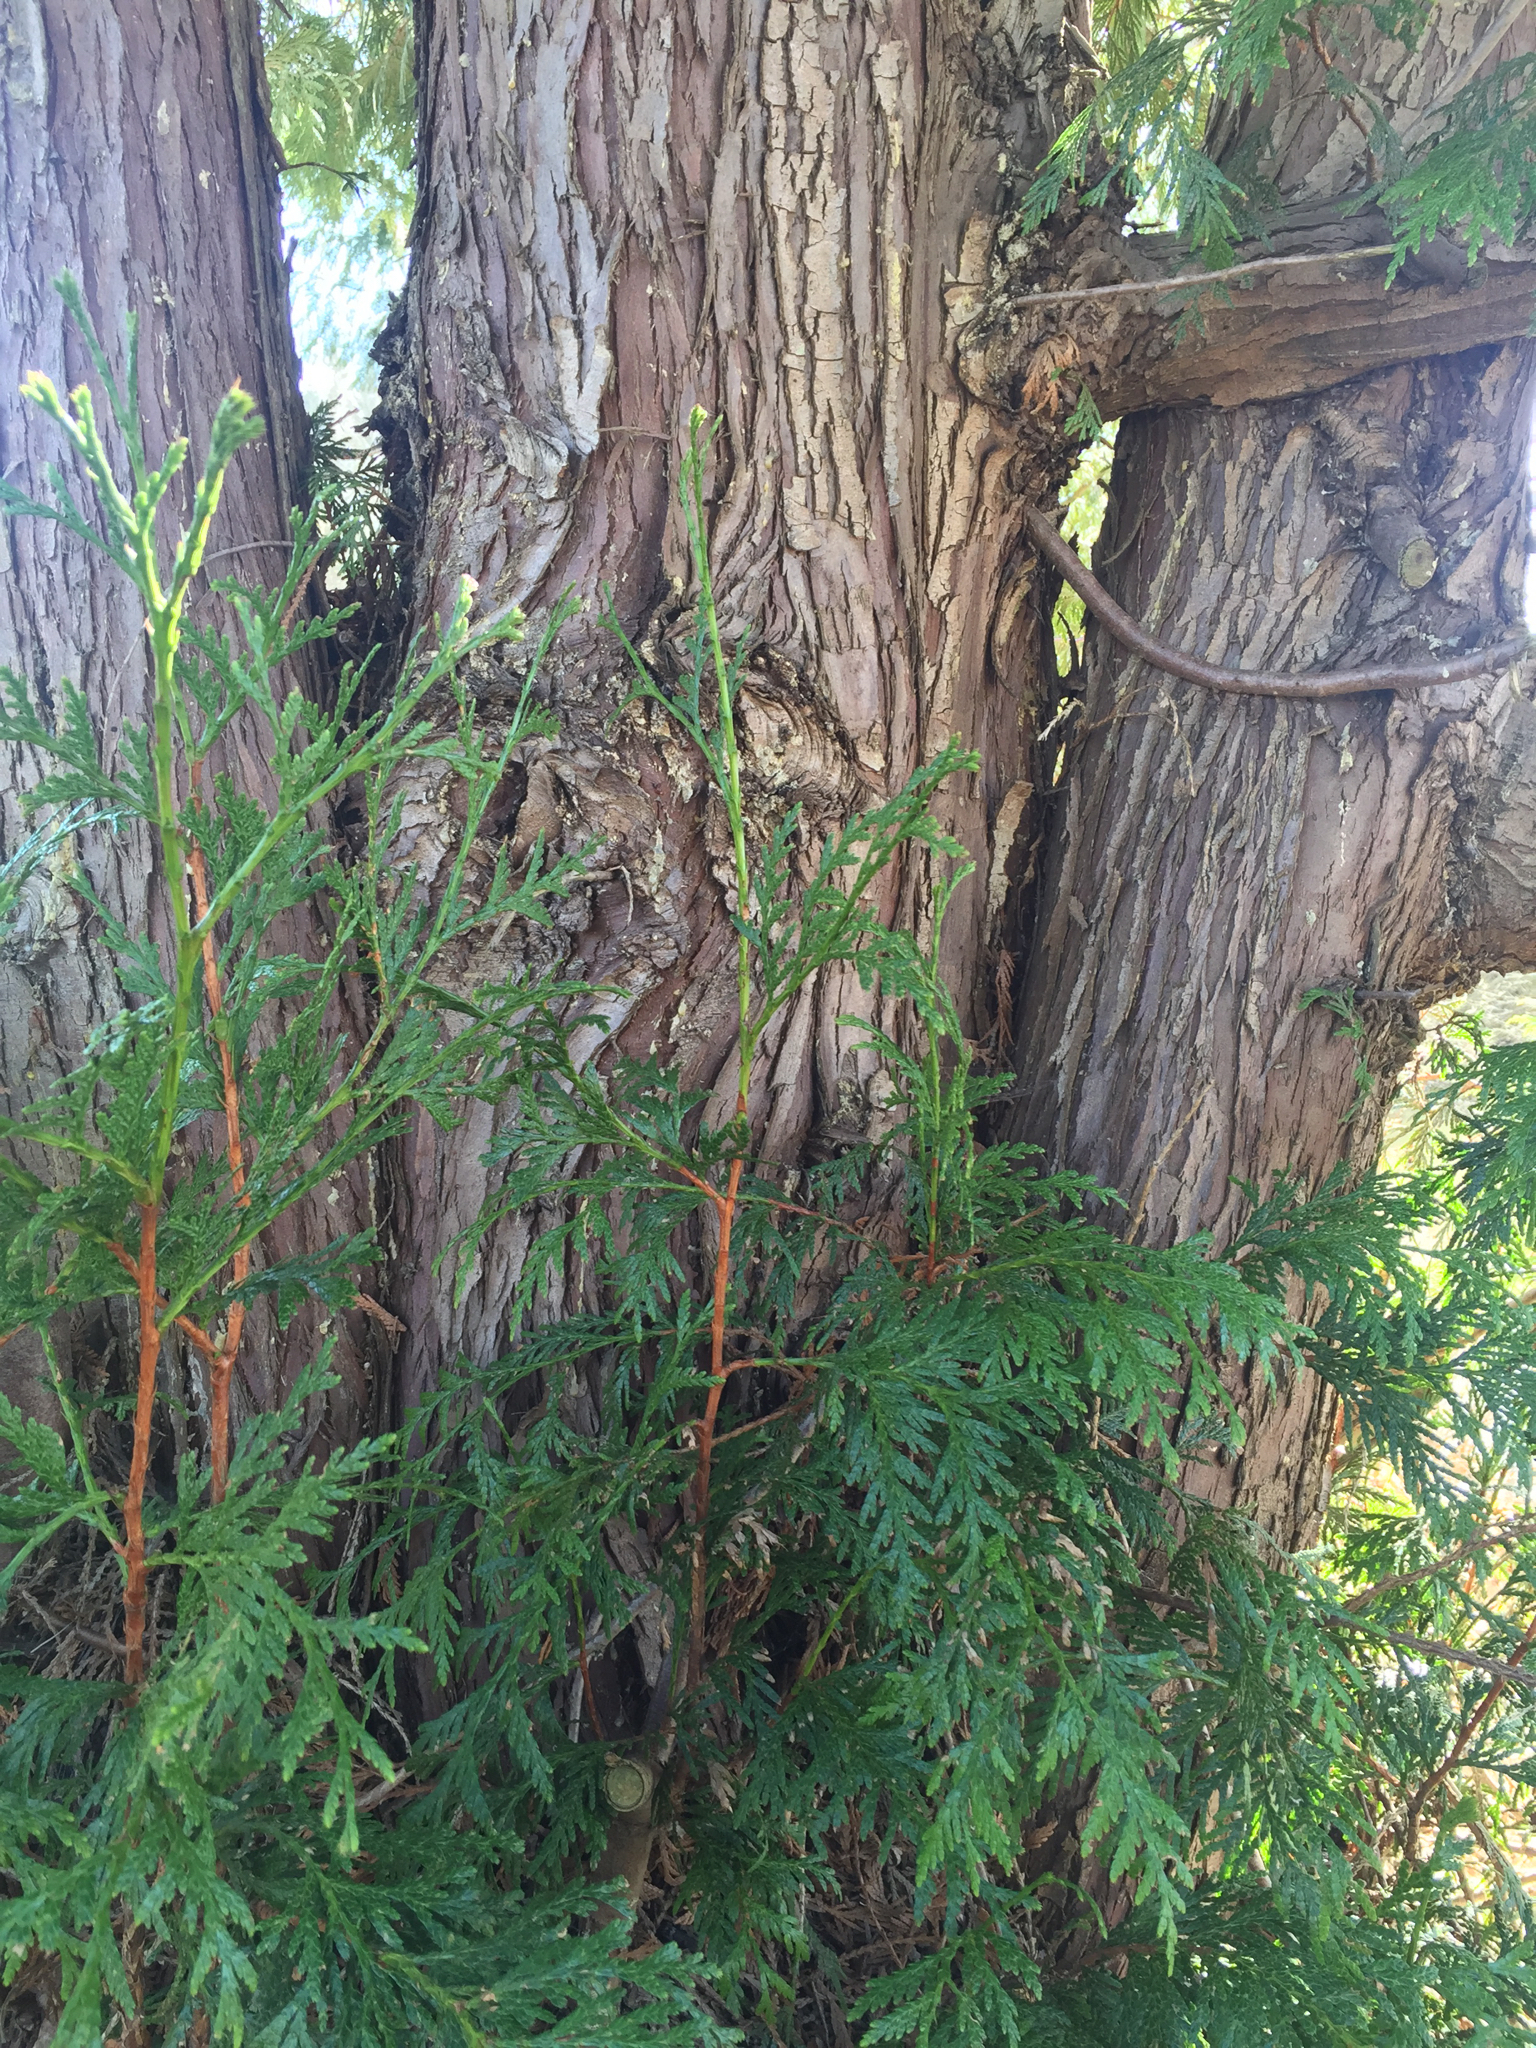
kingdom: Plantae
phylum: Tracheophyta
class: Pinopsida
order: Pinales
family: Cupressaceae
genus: Thuja
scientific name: Thuja plicata
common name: Western red-cedar
